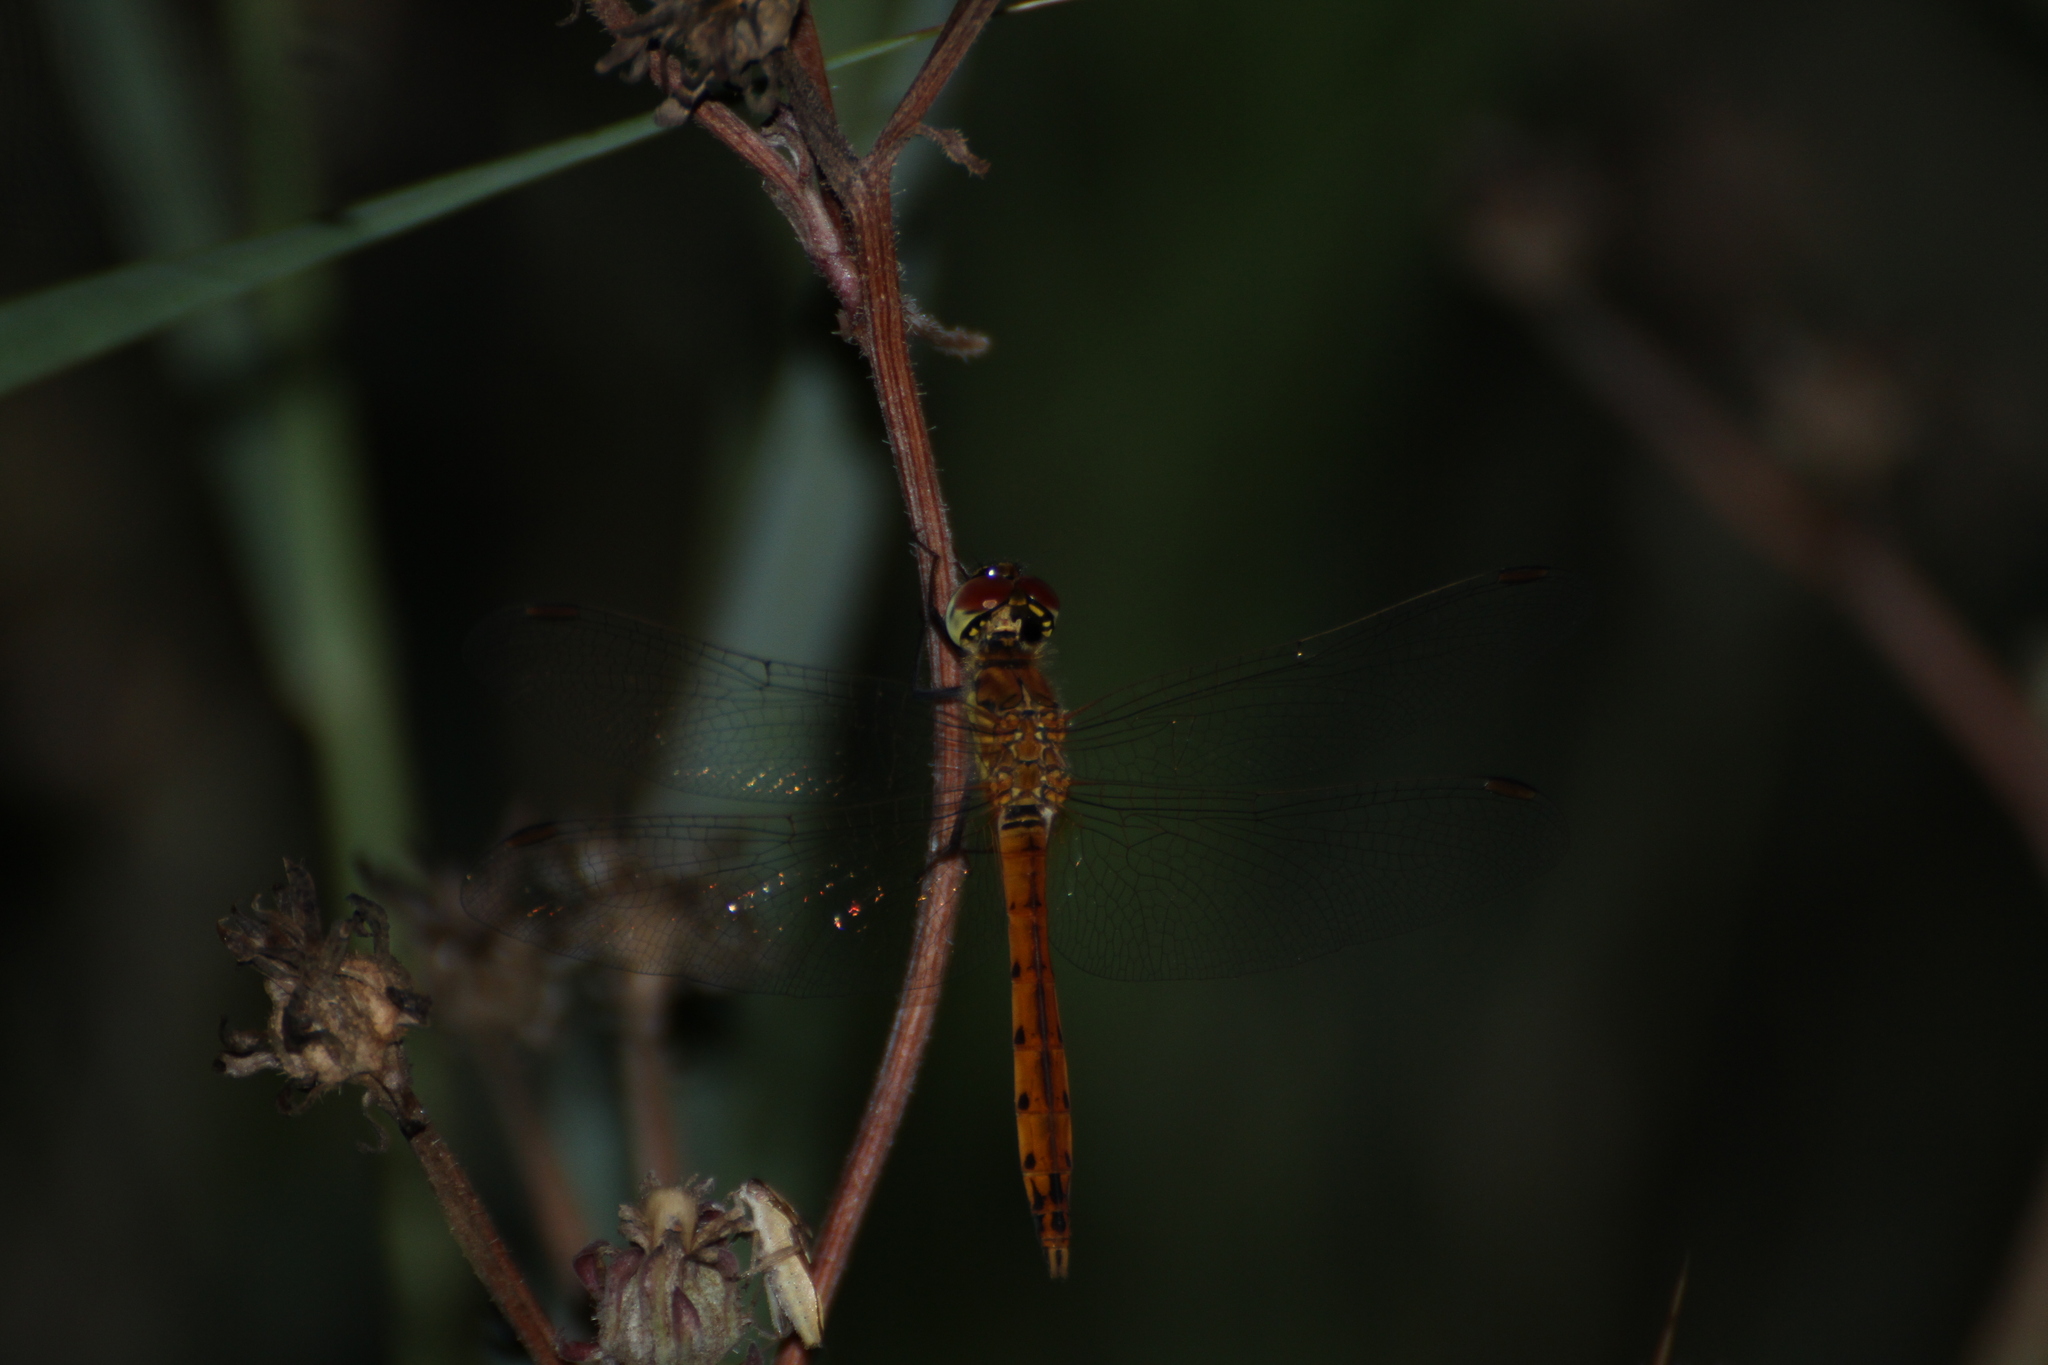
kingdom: Animalia
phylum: Arthropoda
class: Insecta
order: Odonata
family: Libellulidae
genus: Sympetrum
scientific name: Sympetrum depressiusculum
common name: Spotted darter
